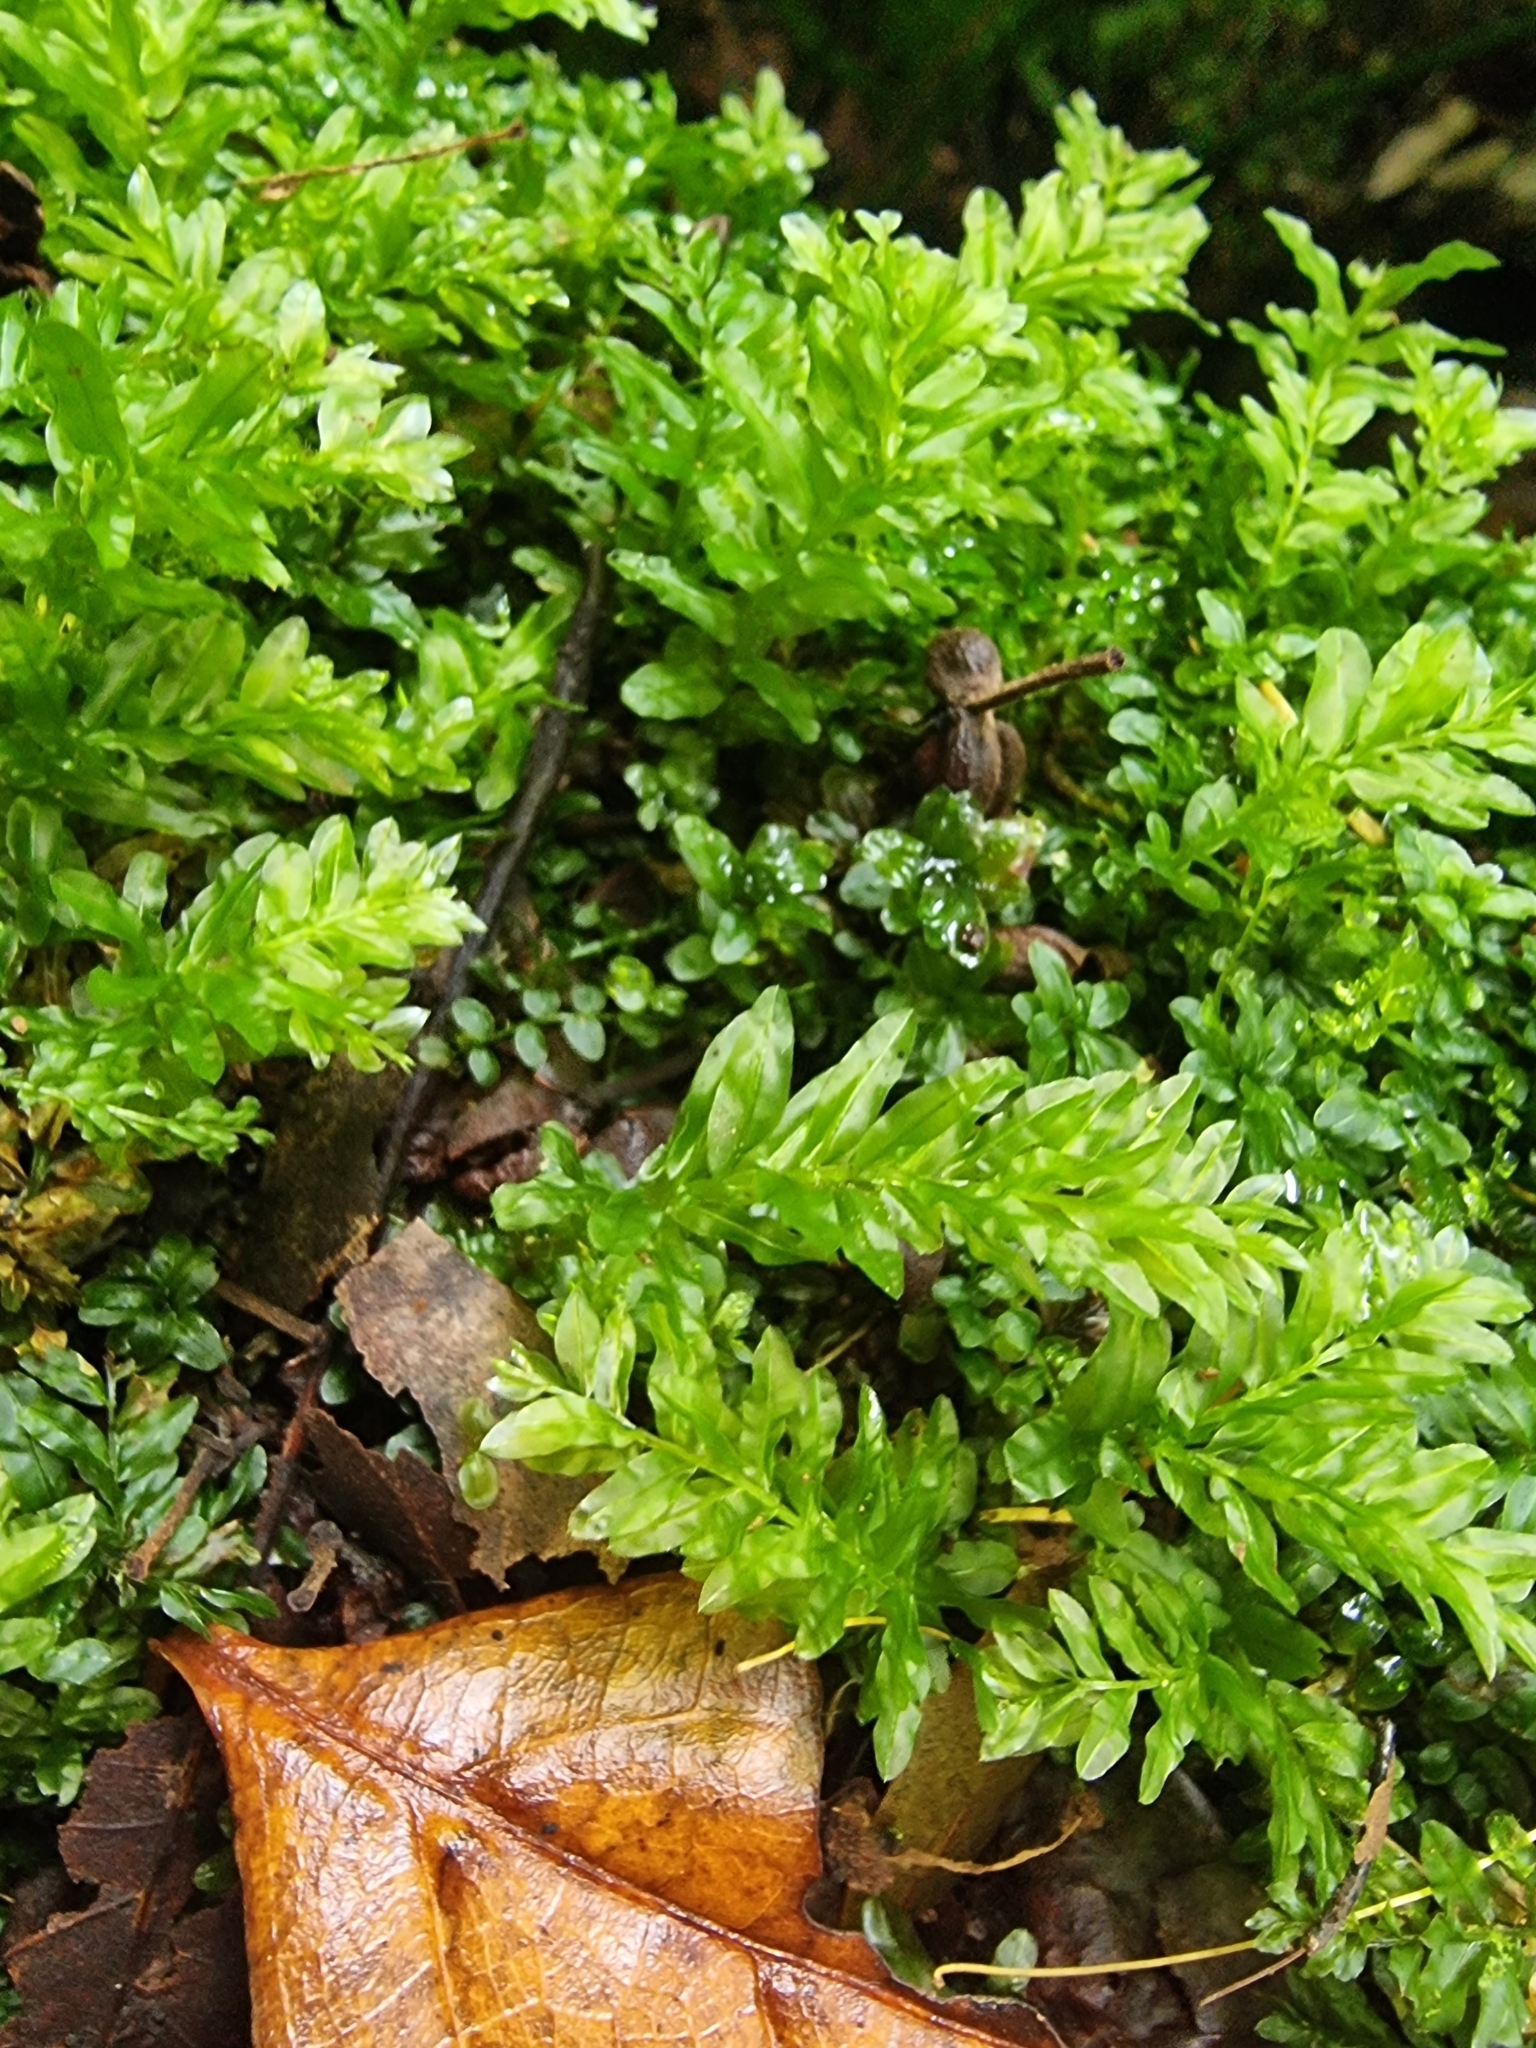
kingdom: Plantae
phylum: Bryophyta
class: Bryopsida
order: Bryales
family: Mniaceae
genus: Plagiomnium
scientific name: Plagiomnium undulatum
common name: Hart's-tongue thyme-moss
